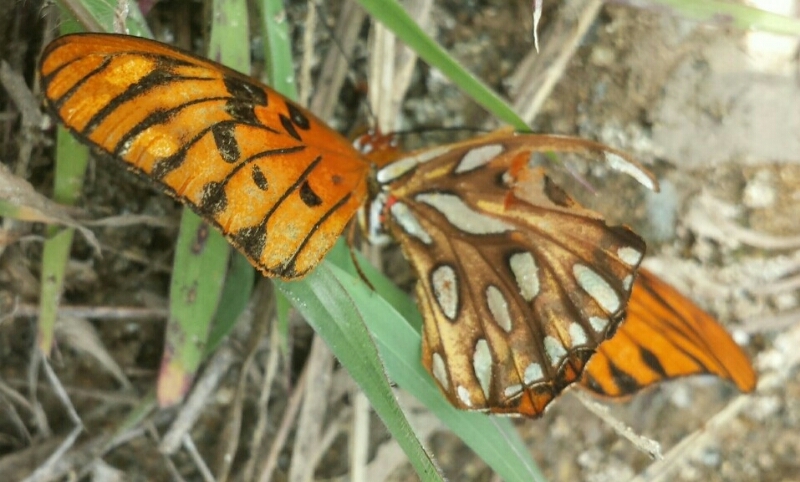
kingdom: Animalia
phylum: Arthropoda
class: Insecta
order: Lepidoptera
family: Nymphalidae
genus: Dione
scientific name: Dione vanillae
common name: Gulf fritillary
